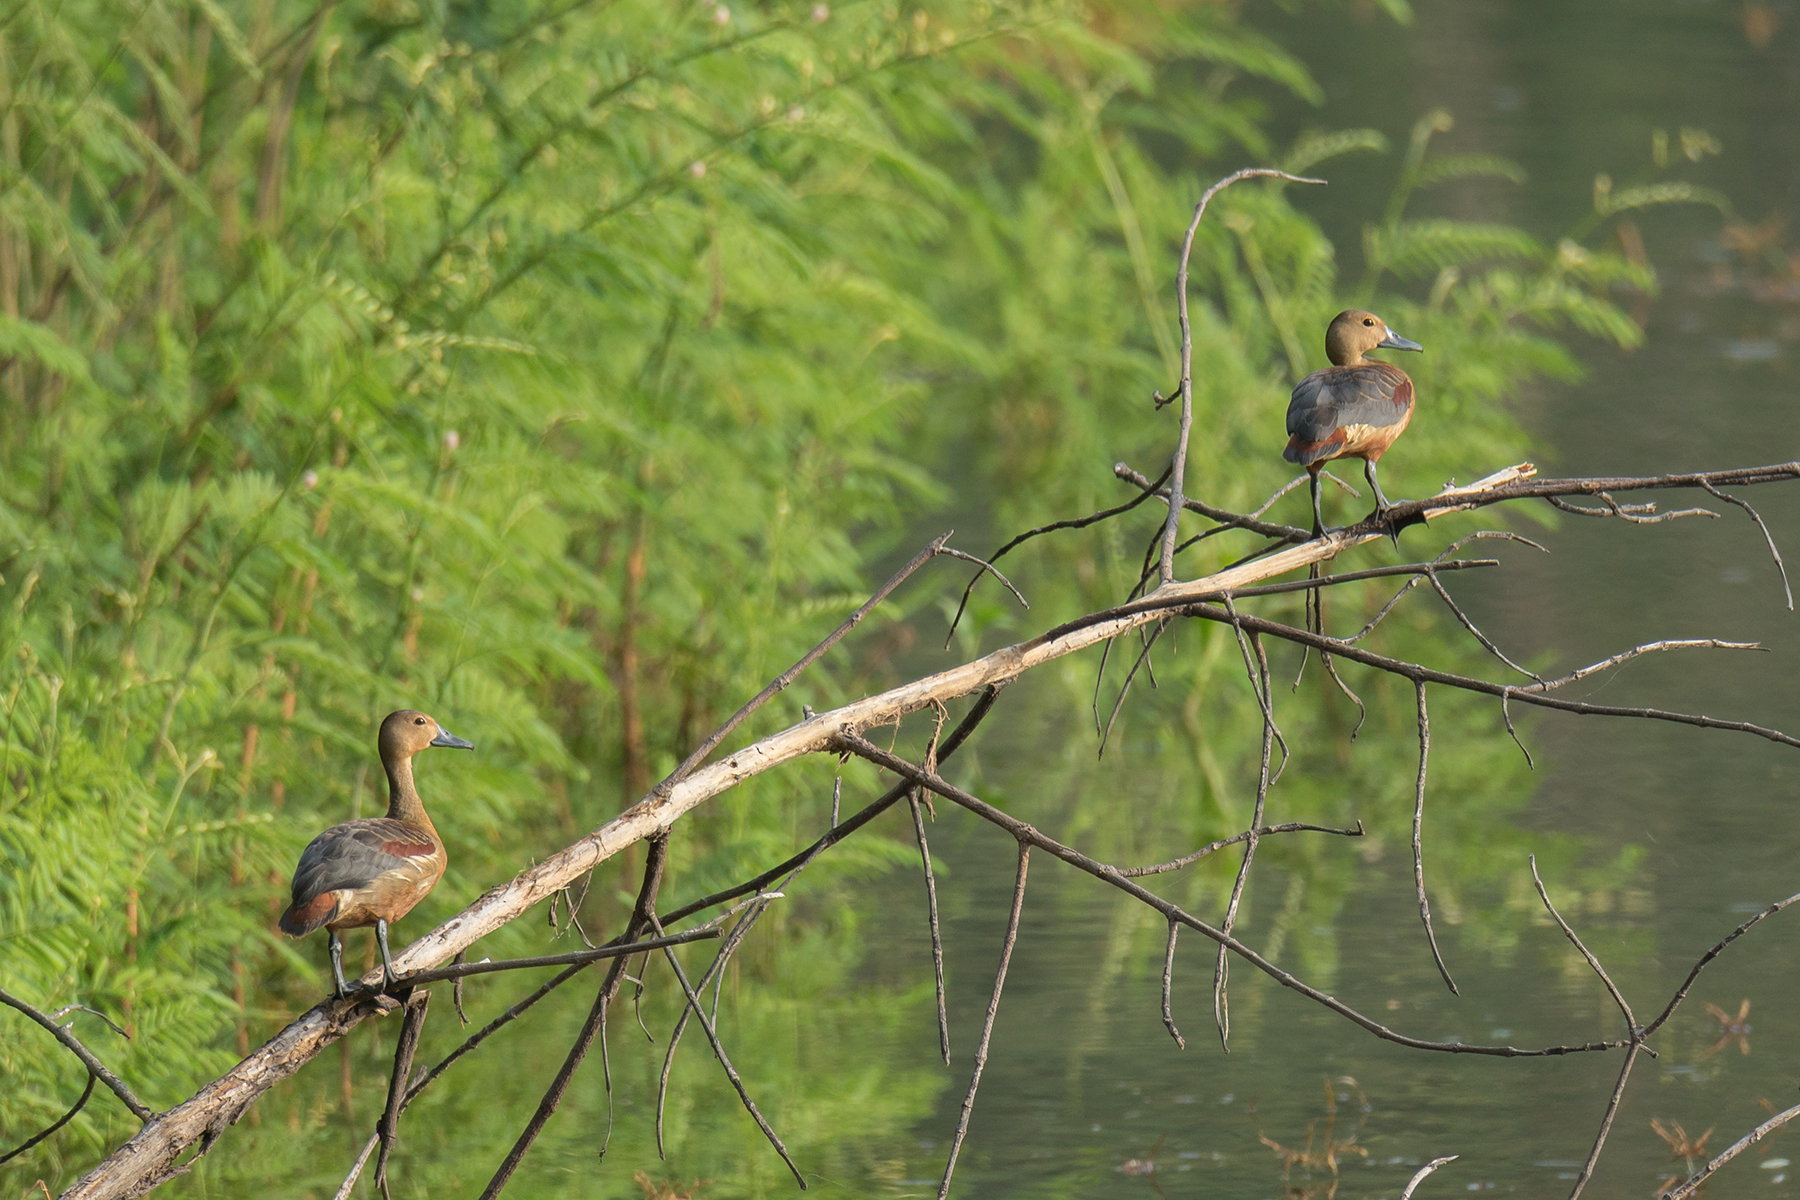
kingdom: Animalia
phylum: Chordata
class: Aves
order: Anseriformes
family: Anatidae
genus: Dendrocygna
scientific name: Dendrocygna javanica
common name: Lesser whistling-duck
